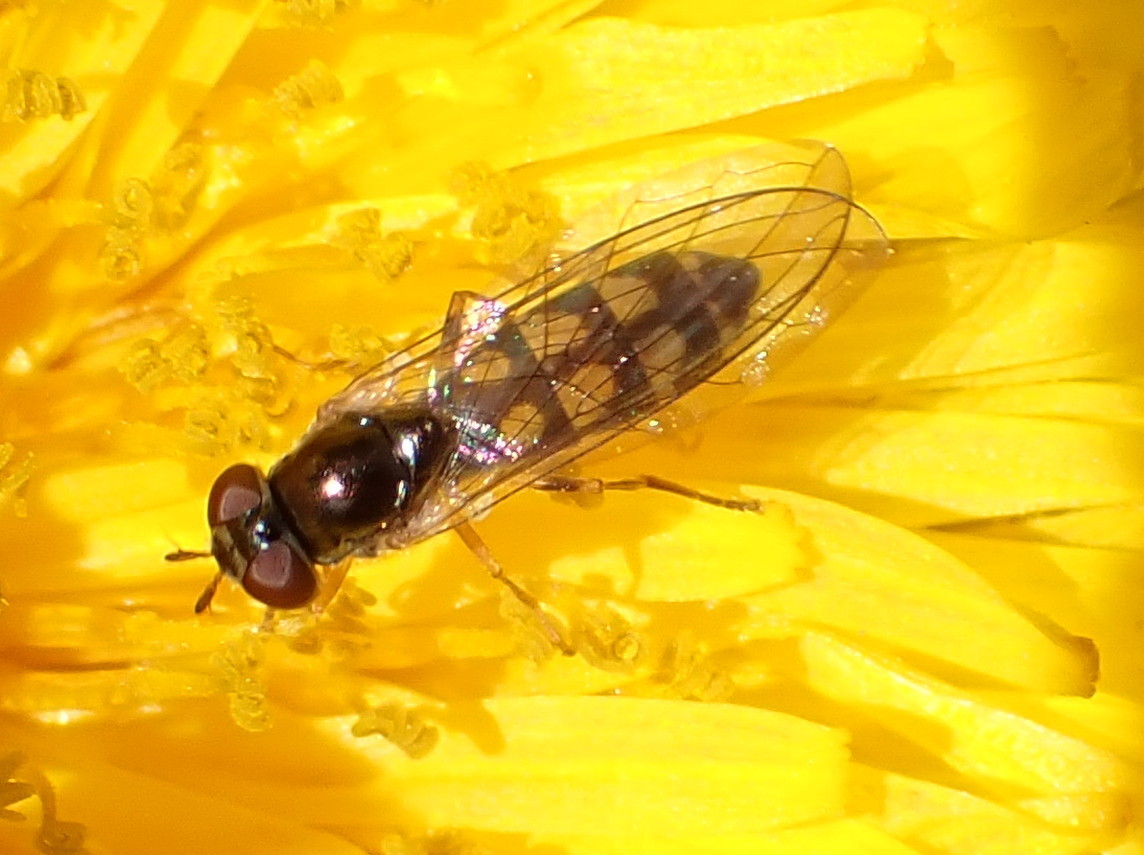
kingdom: Animalia
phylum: Arthropoda
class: Insecta
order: Diptera
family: Syrphidae
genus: Melanostoma
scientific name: Melanostoma mellina
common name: Hover fly
